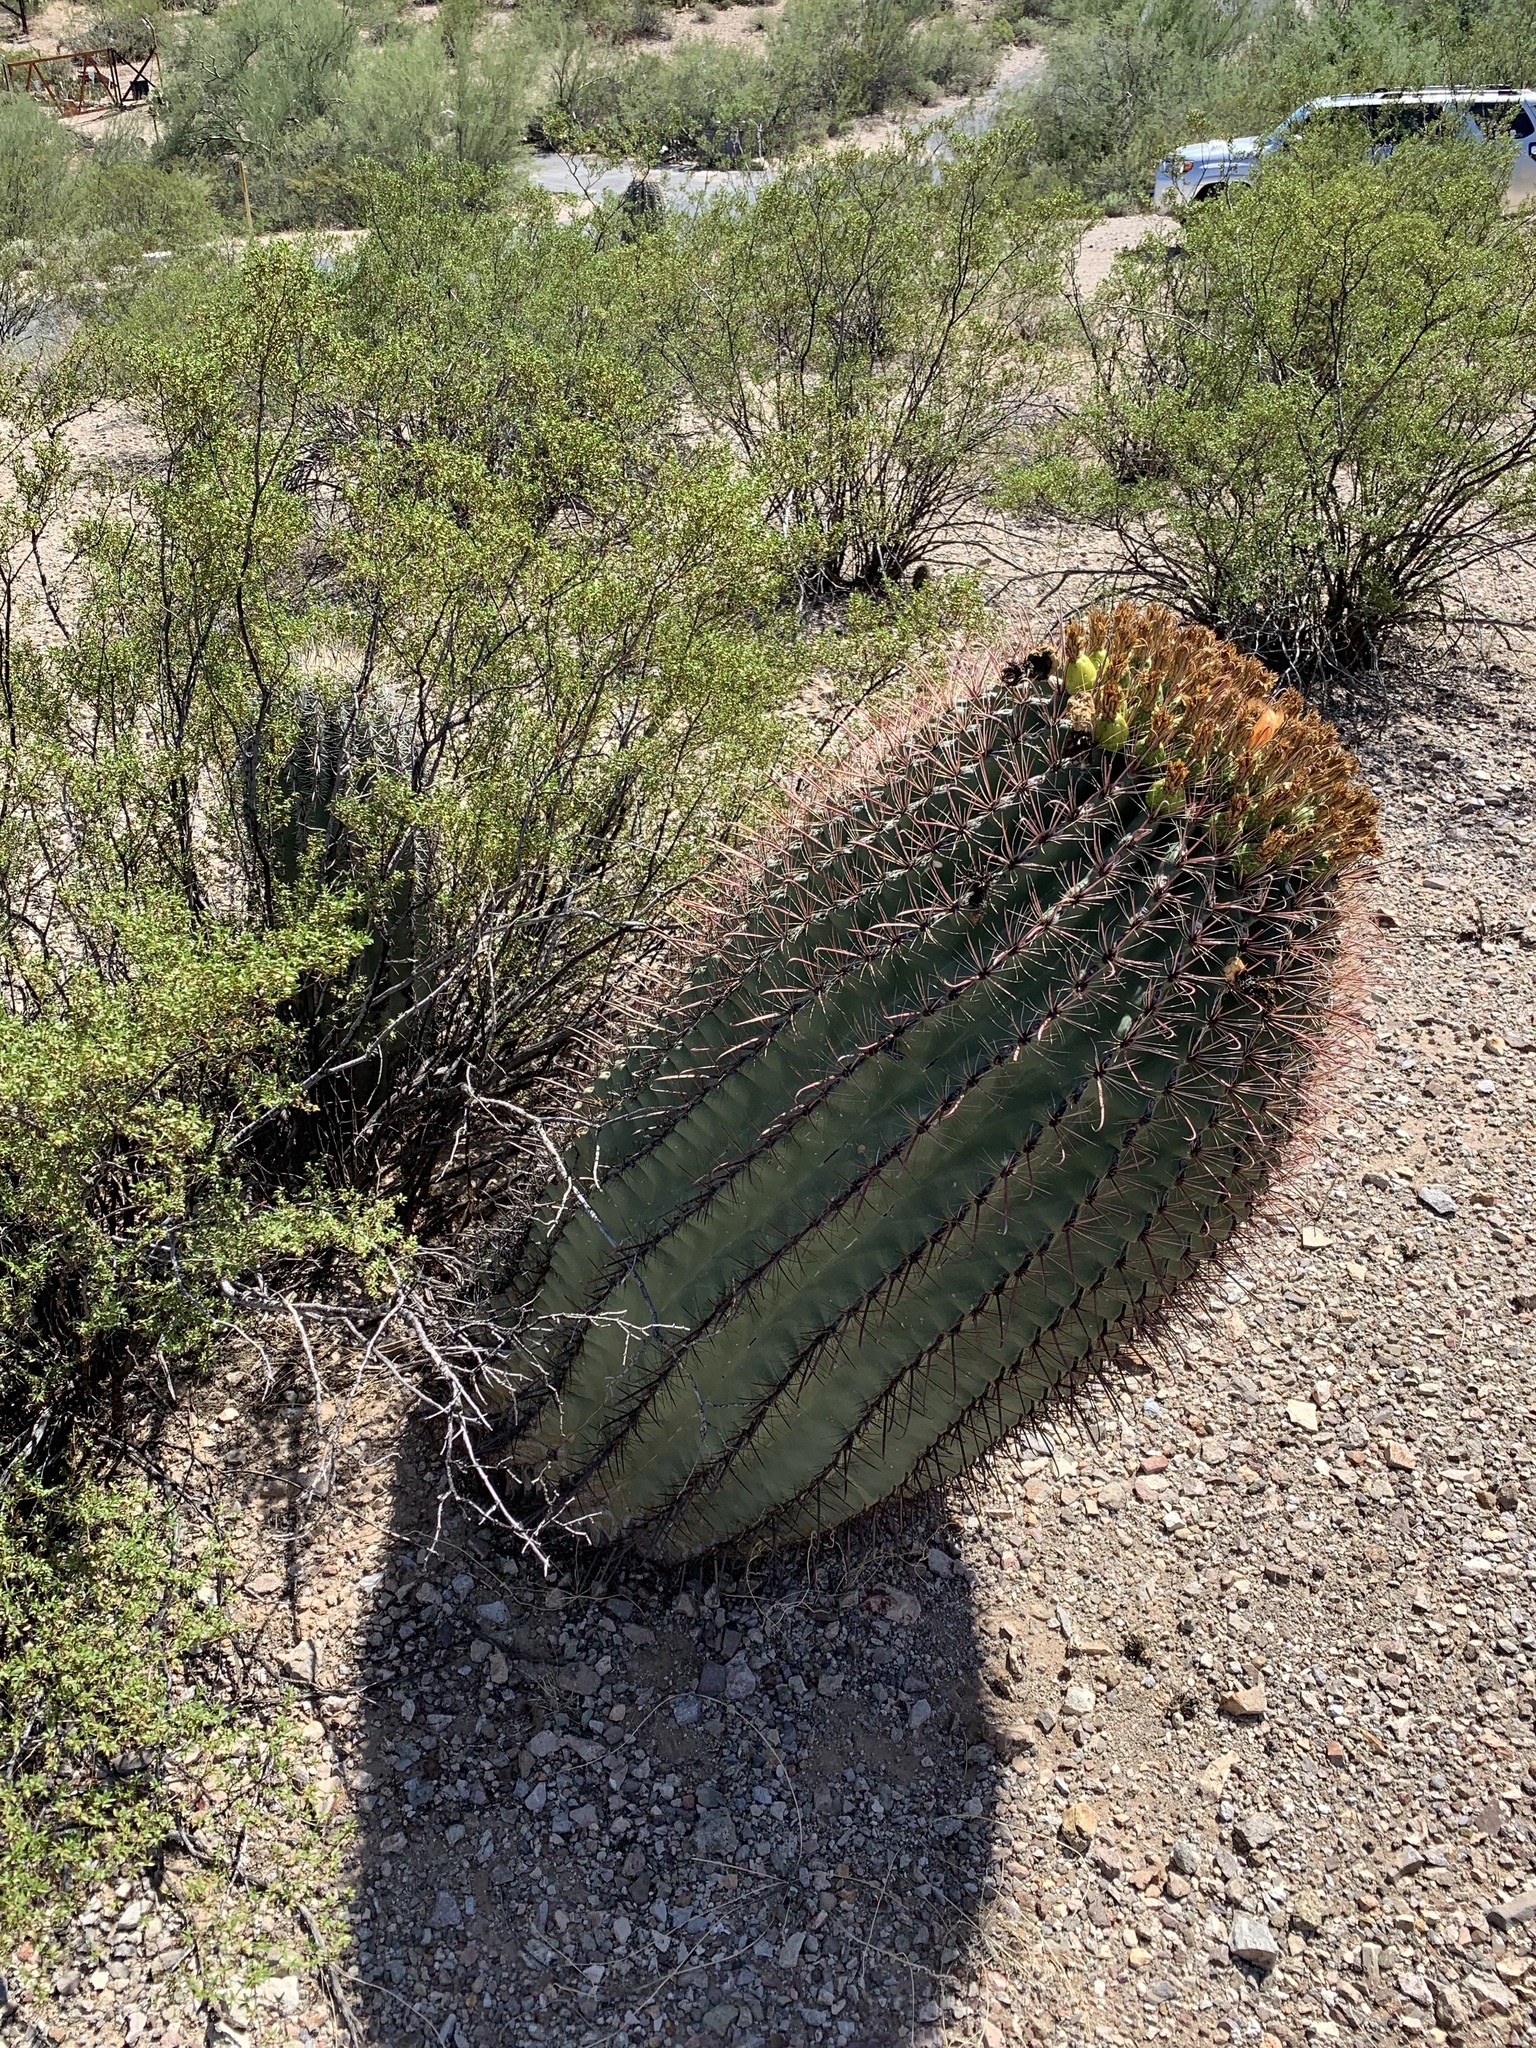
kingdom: Plantae
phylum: Tracheophyta
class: Magnoliopsida
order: Caryophyllales
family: Cactaceae
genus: Ferocactus
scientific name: Ferocactus wislizeni
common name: Candy barrel cactus
